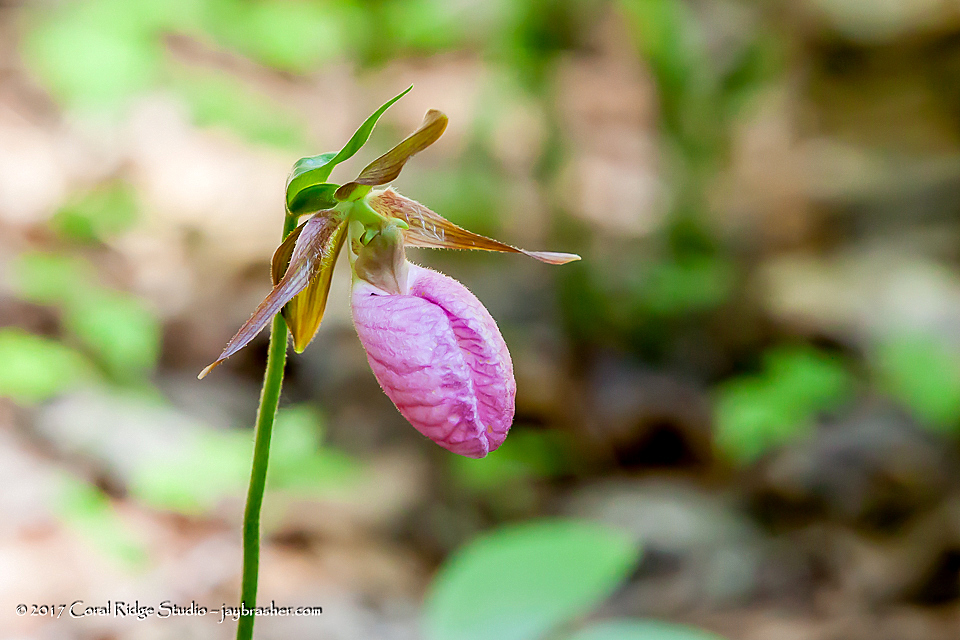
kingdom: Plantae
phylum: Tracheophyta
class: Liliopsida
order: Asparagales
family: Orchidaceae
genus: Cypripedium
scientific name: Cypripedium acaule
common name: Pink lady's-slipper
